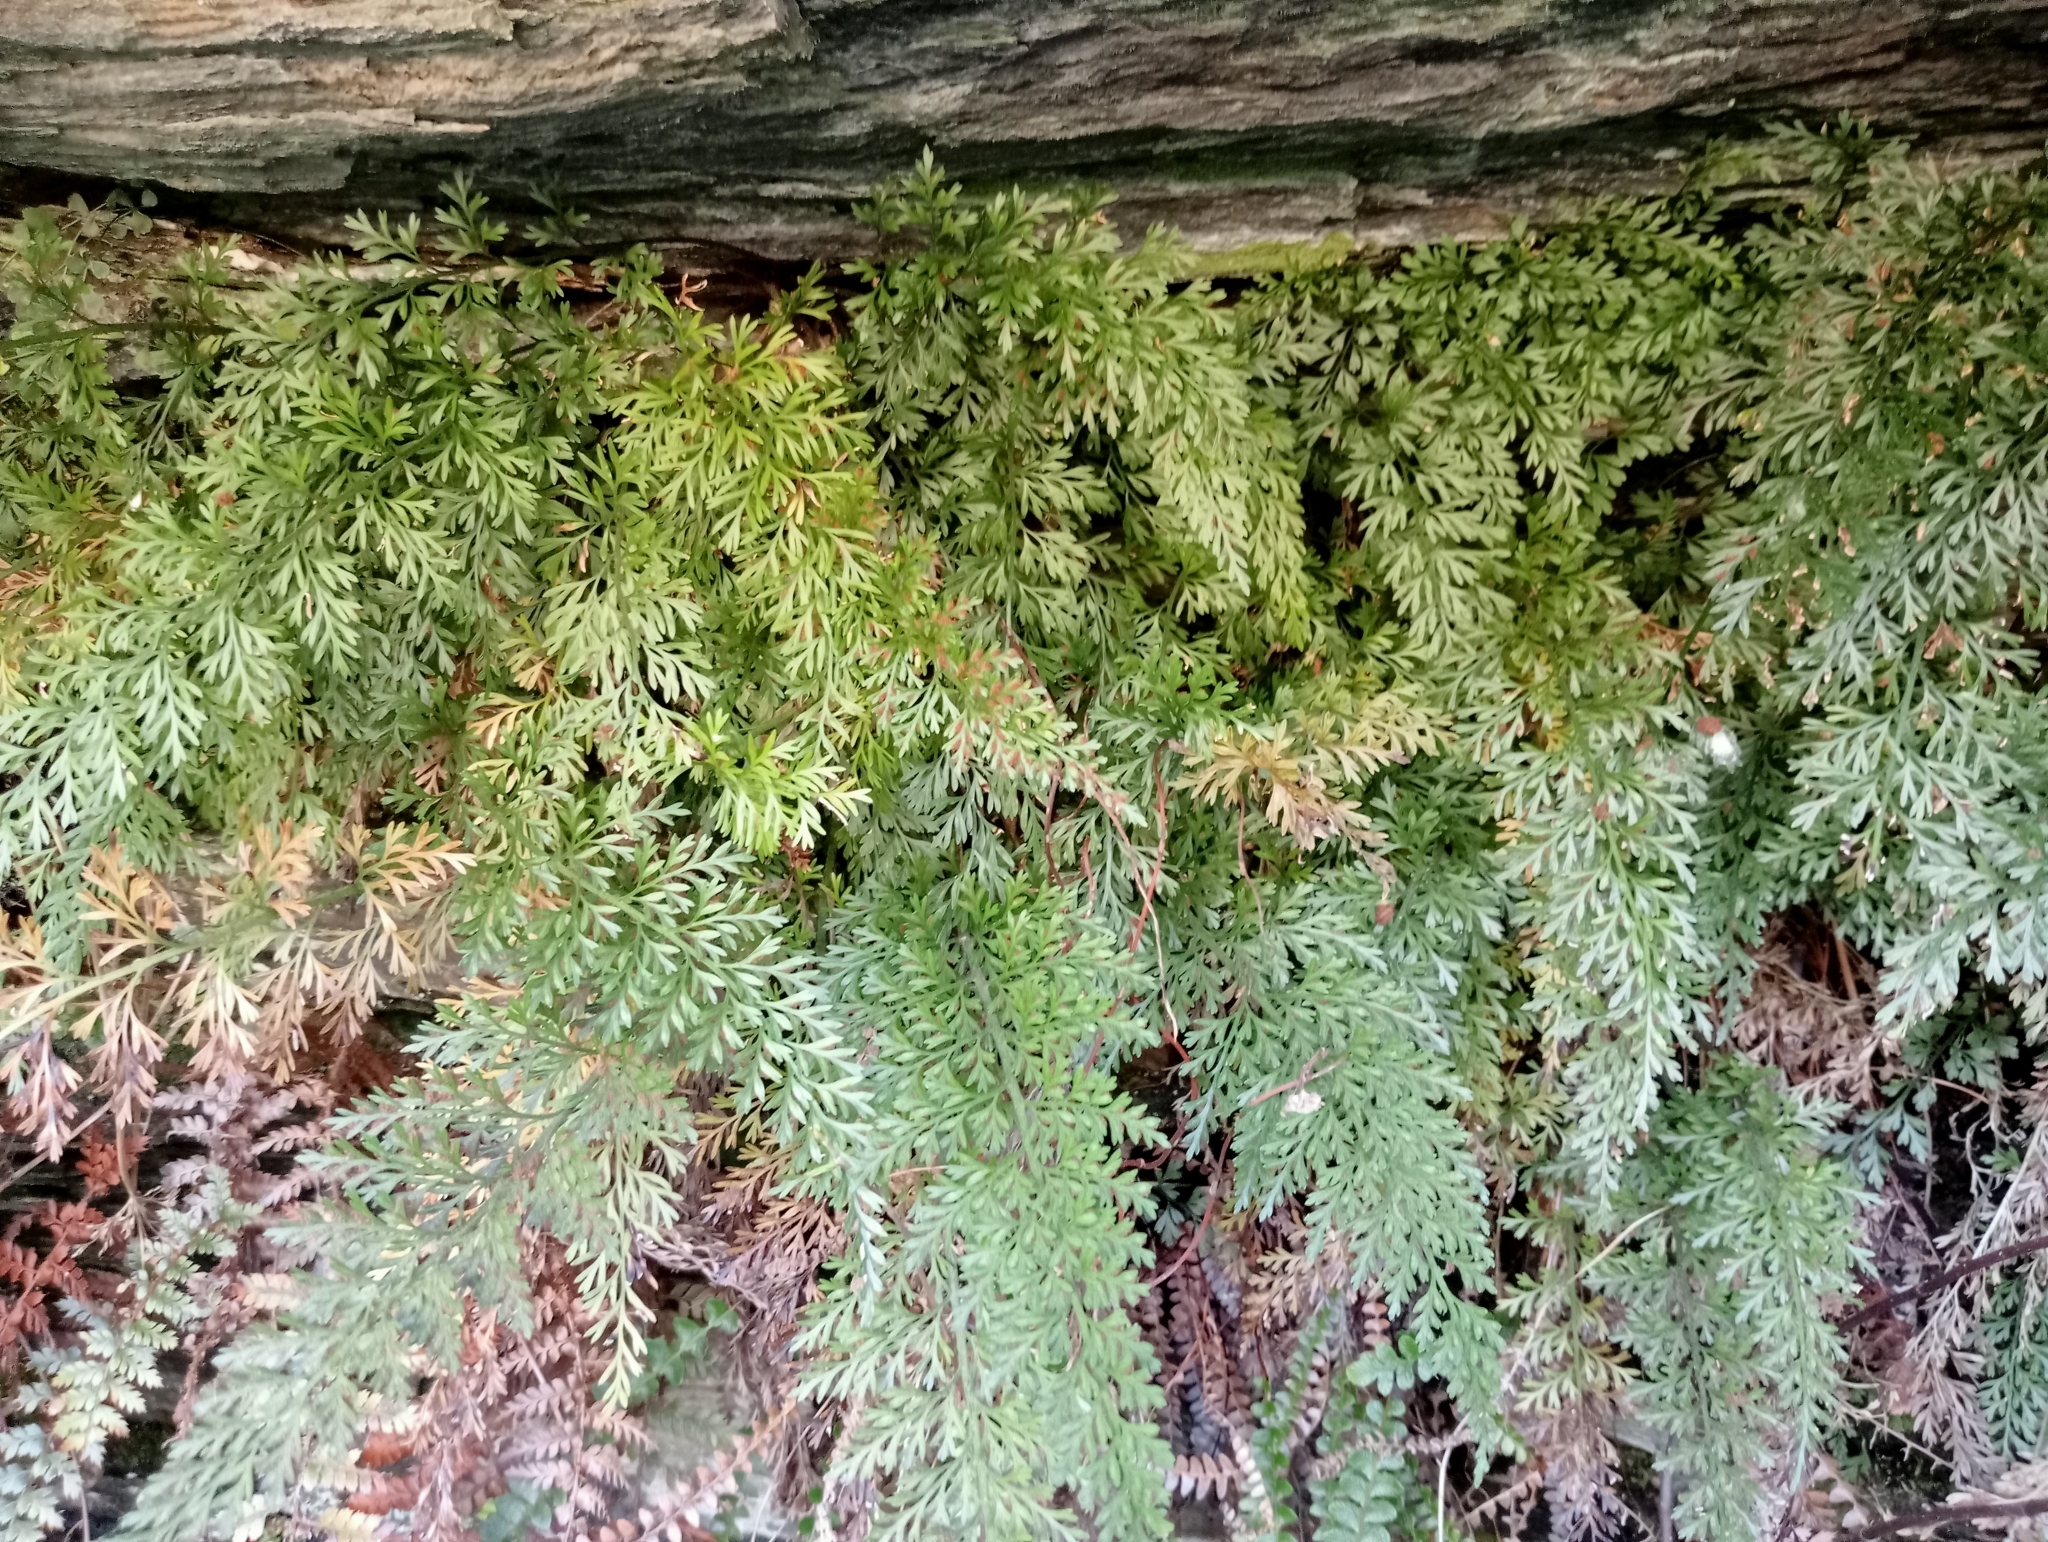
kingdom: Plantae
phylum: Tracheophyta
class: Polypodiopsida
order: Polypodiales
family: Aspleniaceae
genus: Asplenium
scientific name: Asplenium richardii
